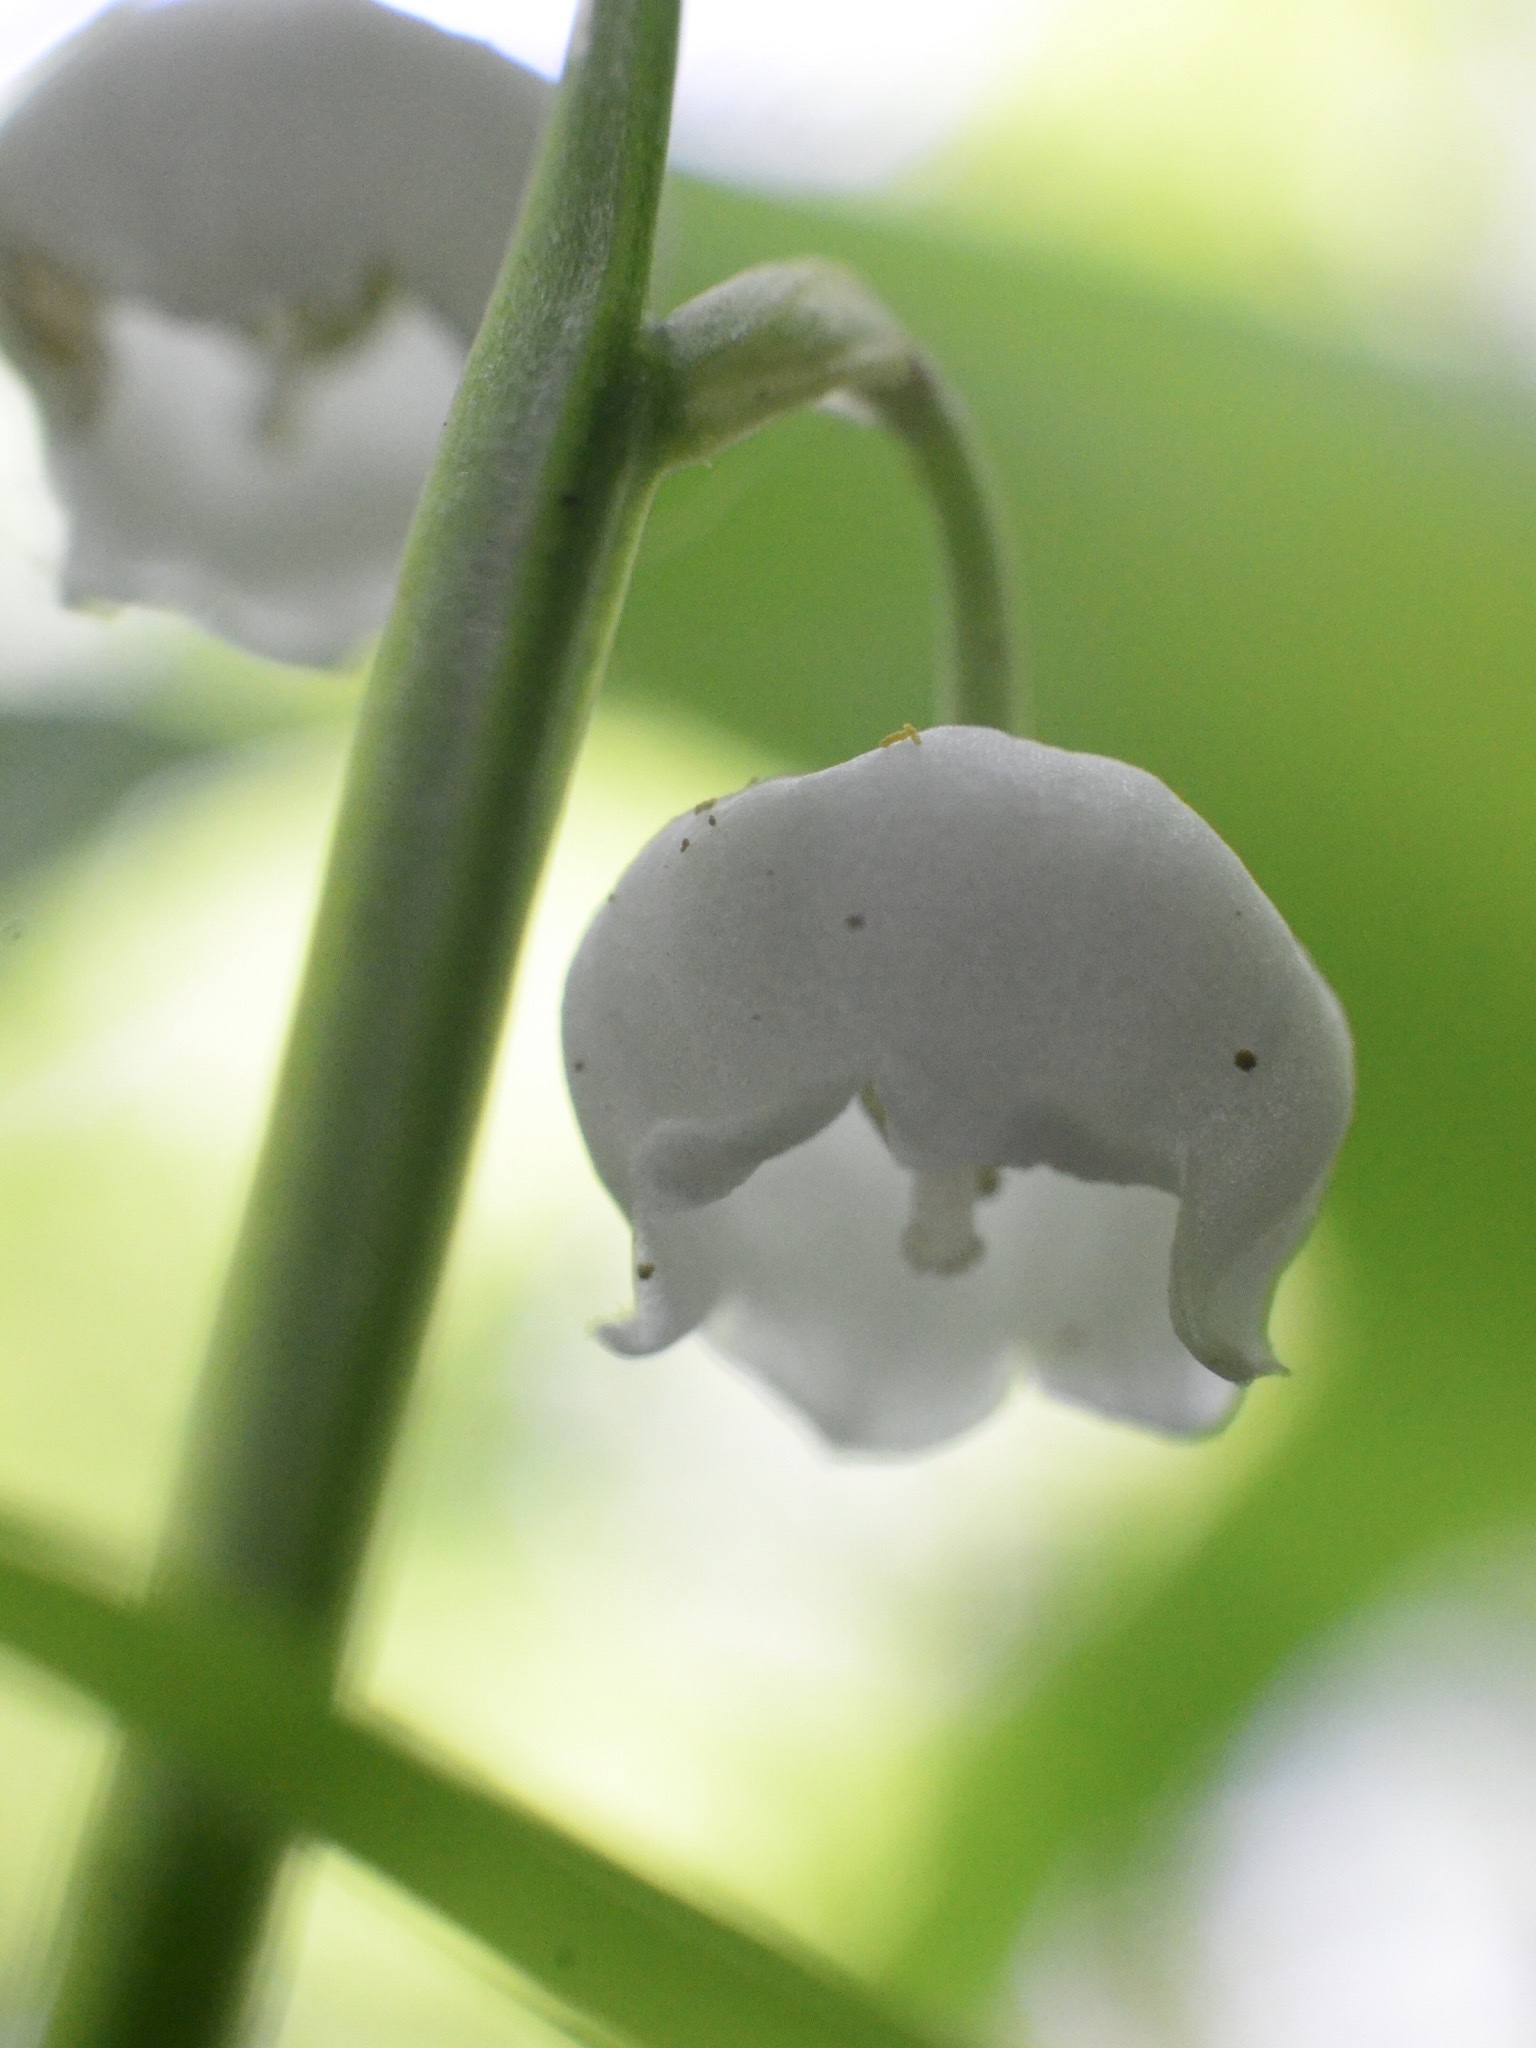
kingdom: Plantae
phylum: Tracheophyta
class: Liliopsida
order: Asparagales
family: Asparagaceae
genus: Convallaria
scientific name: Convallaria majalis
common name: Lily-of-the-valley
